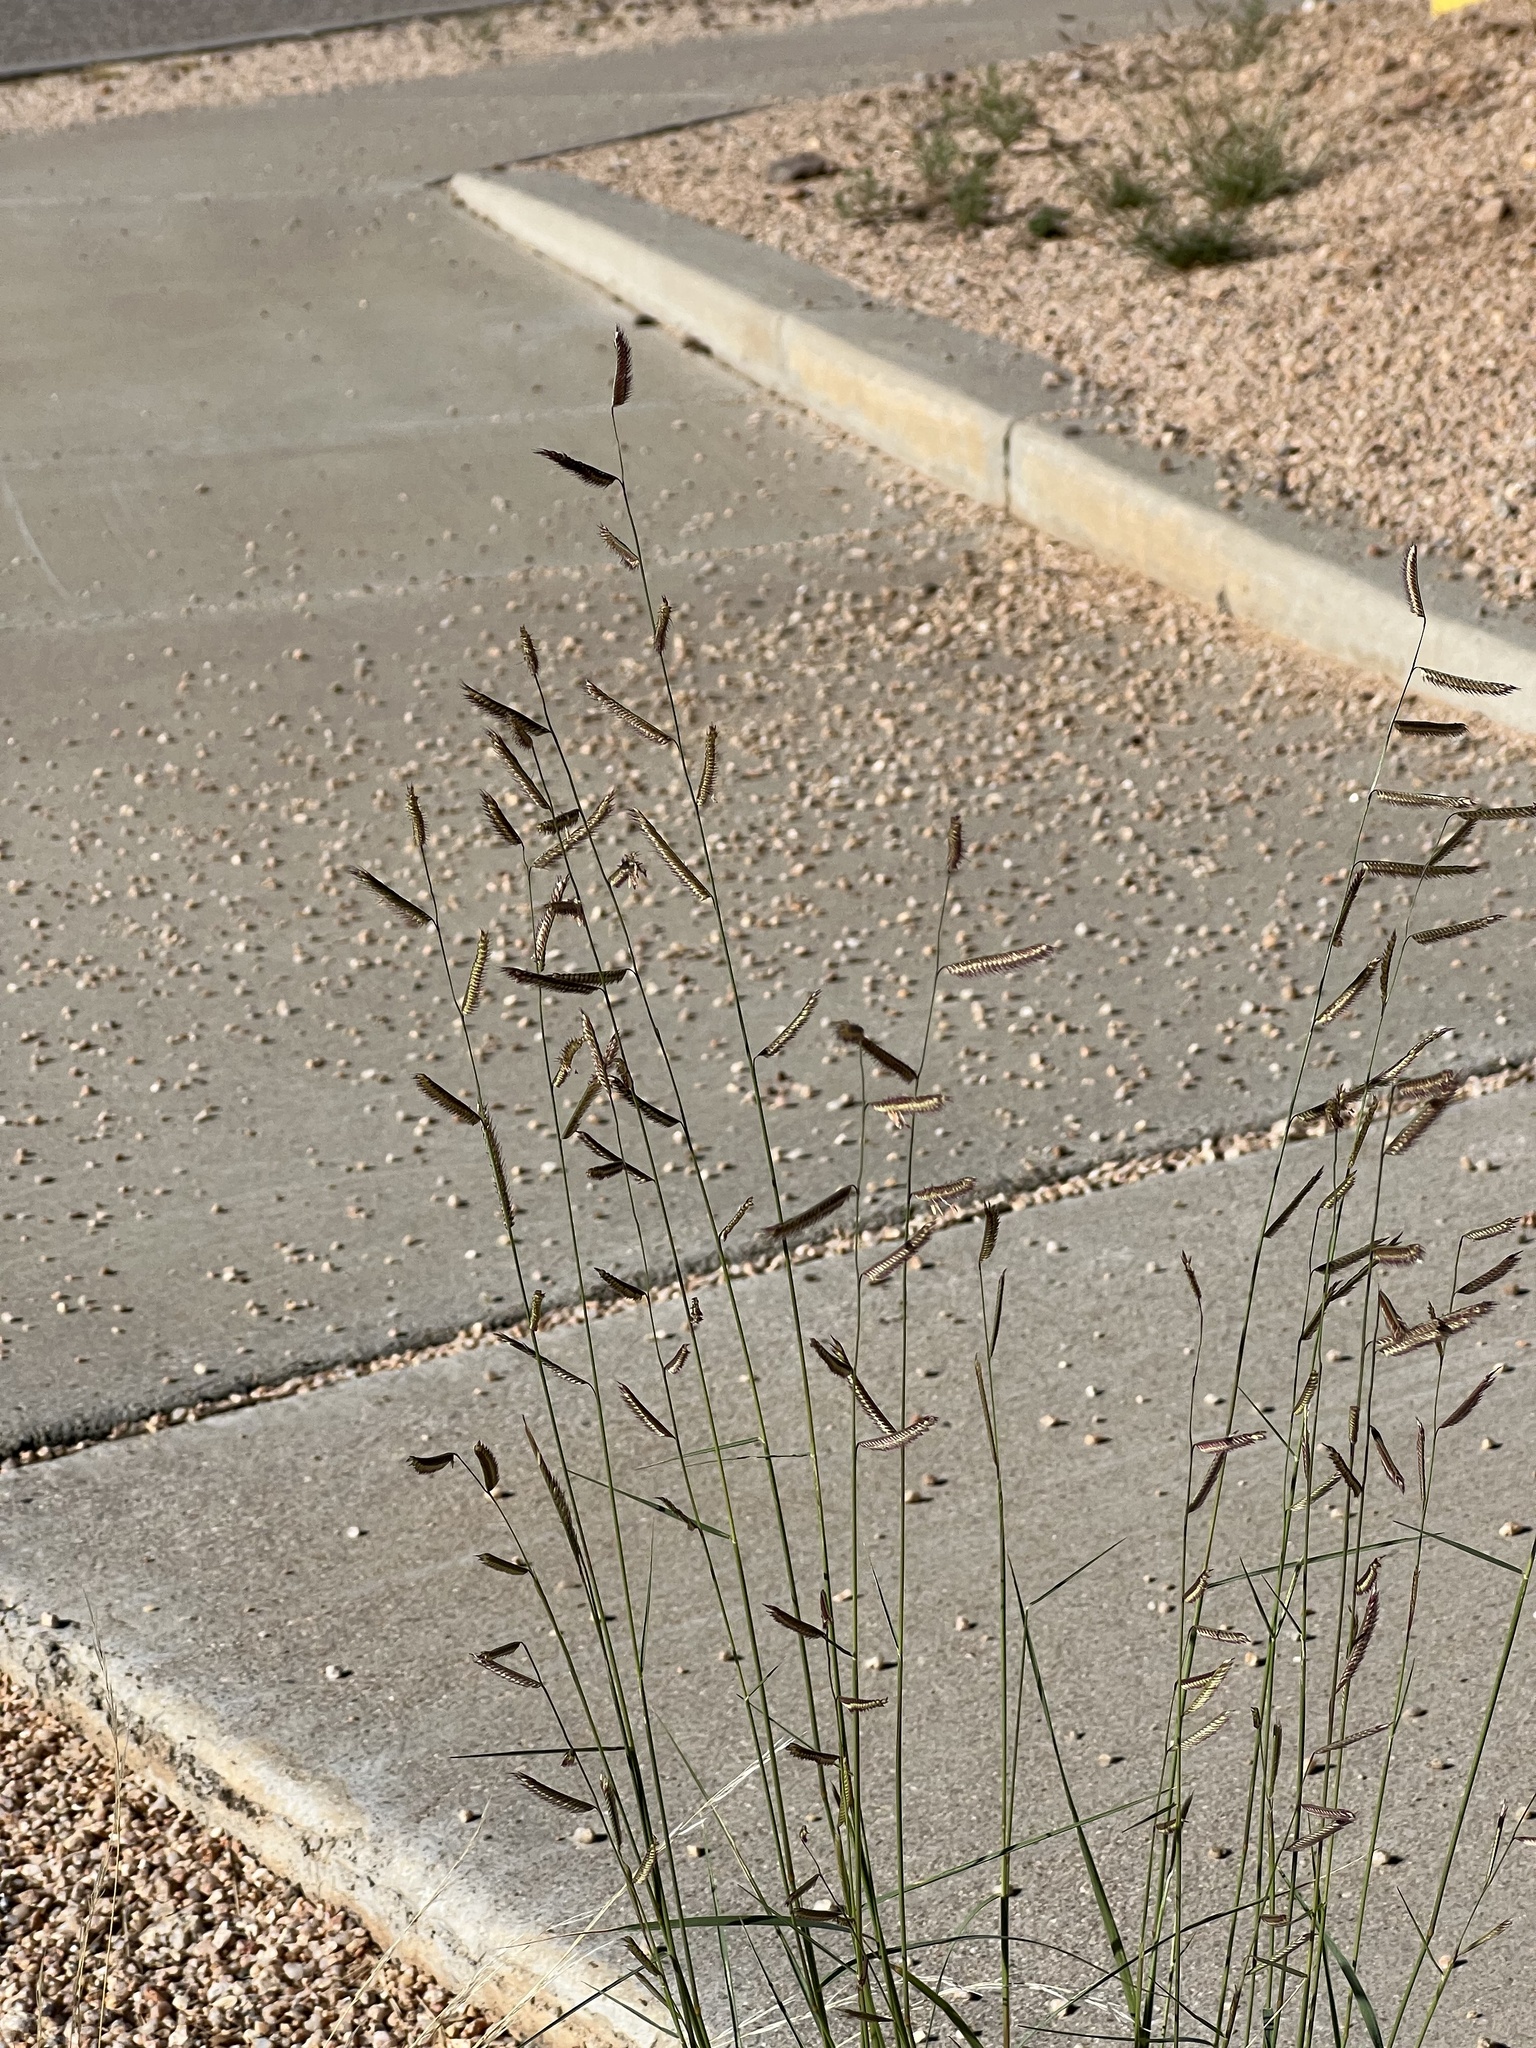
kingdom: Plantae
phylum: Tracheophyta
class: Liliopsida
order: Poales
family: Poaceae
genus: Bouteloua
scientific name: Bouteloua barbata
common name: Six-weeks grama
